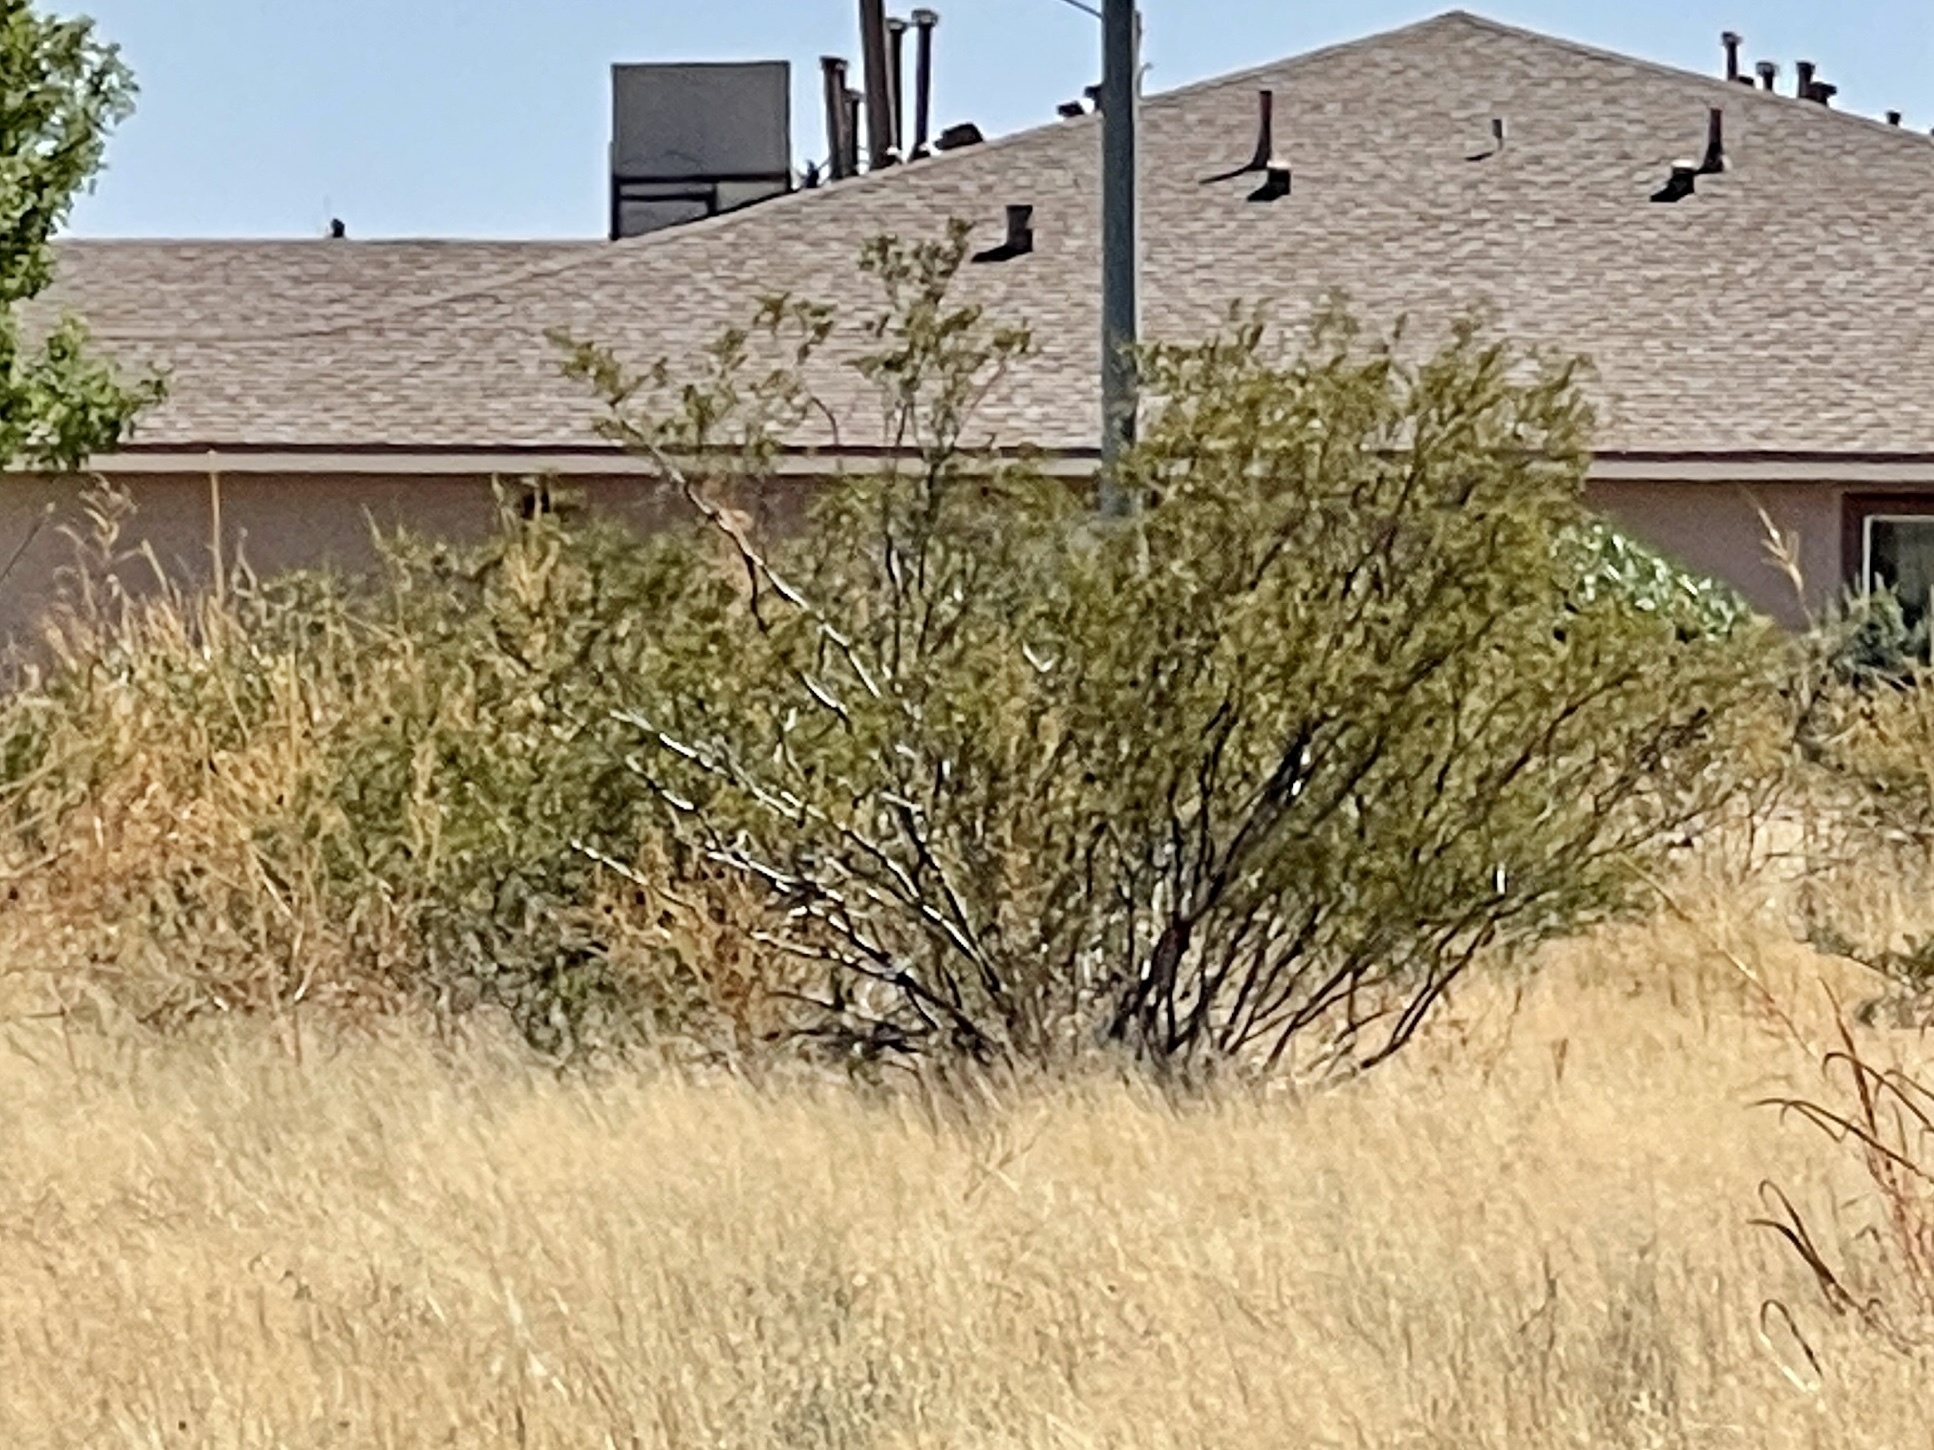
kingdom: Plantae
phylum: Tracheophyta
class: Magnoliopsida
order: Zygophyllales
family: Zygophyllaceae
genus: Larrea
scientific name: Larrea tridentata
